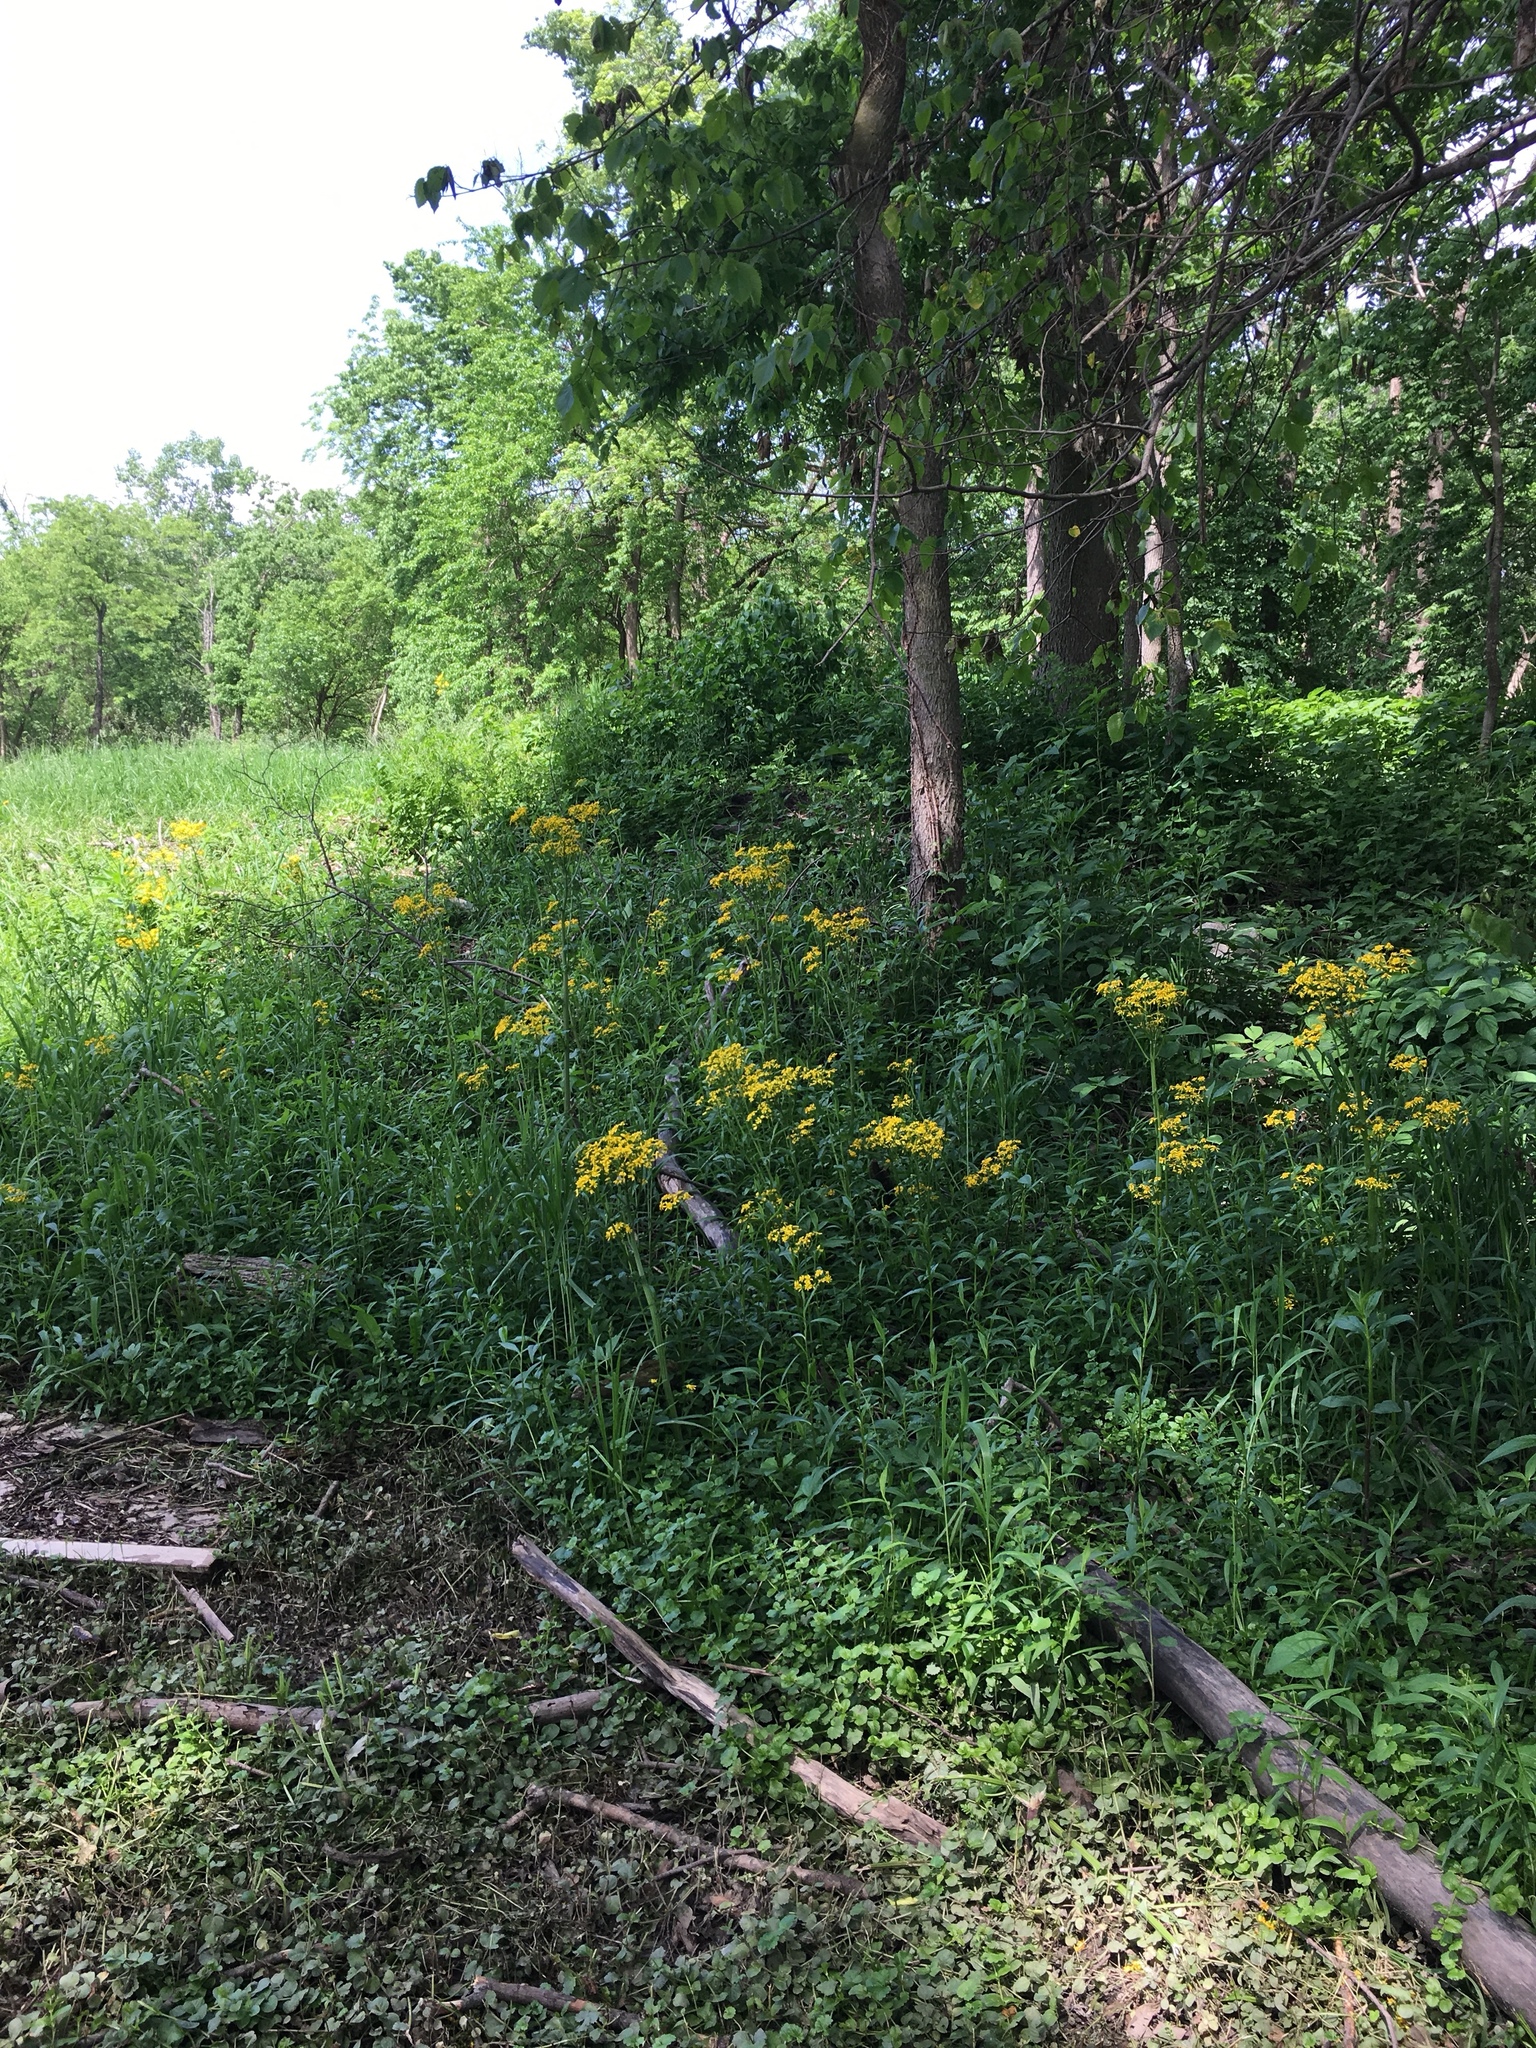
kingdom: Plantae
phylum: Tracheophyta
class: Magnoliopsida
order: Asterales
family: Asteraceae
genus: Packera
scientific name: Packera glabella
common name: Butterweed
